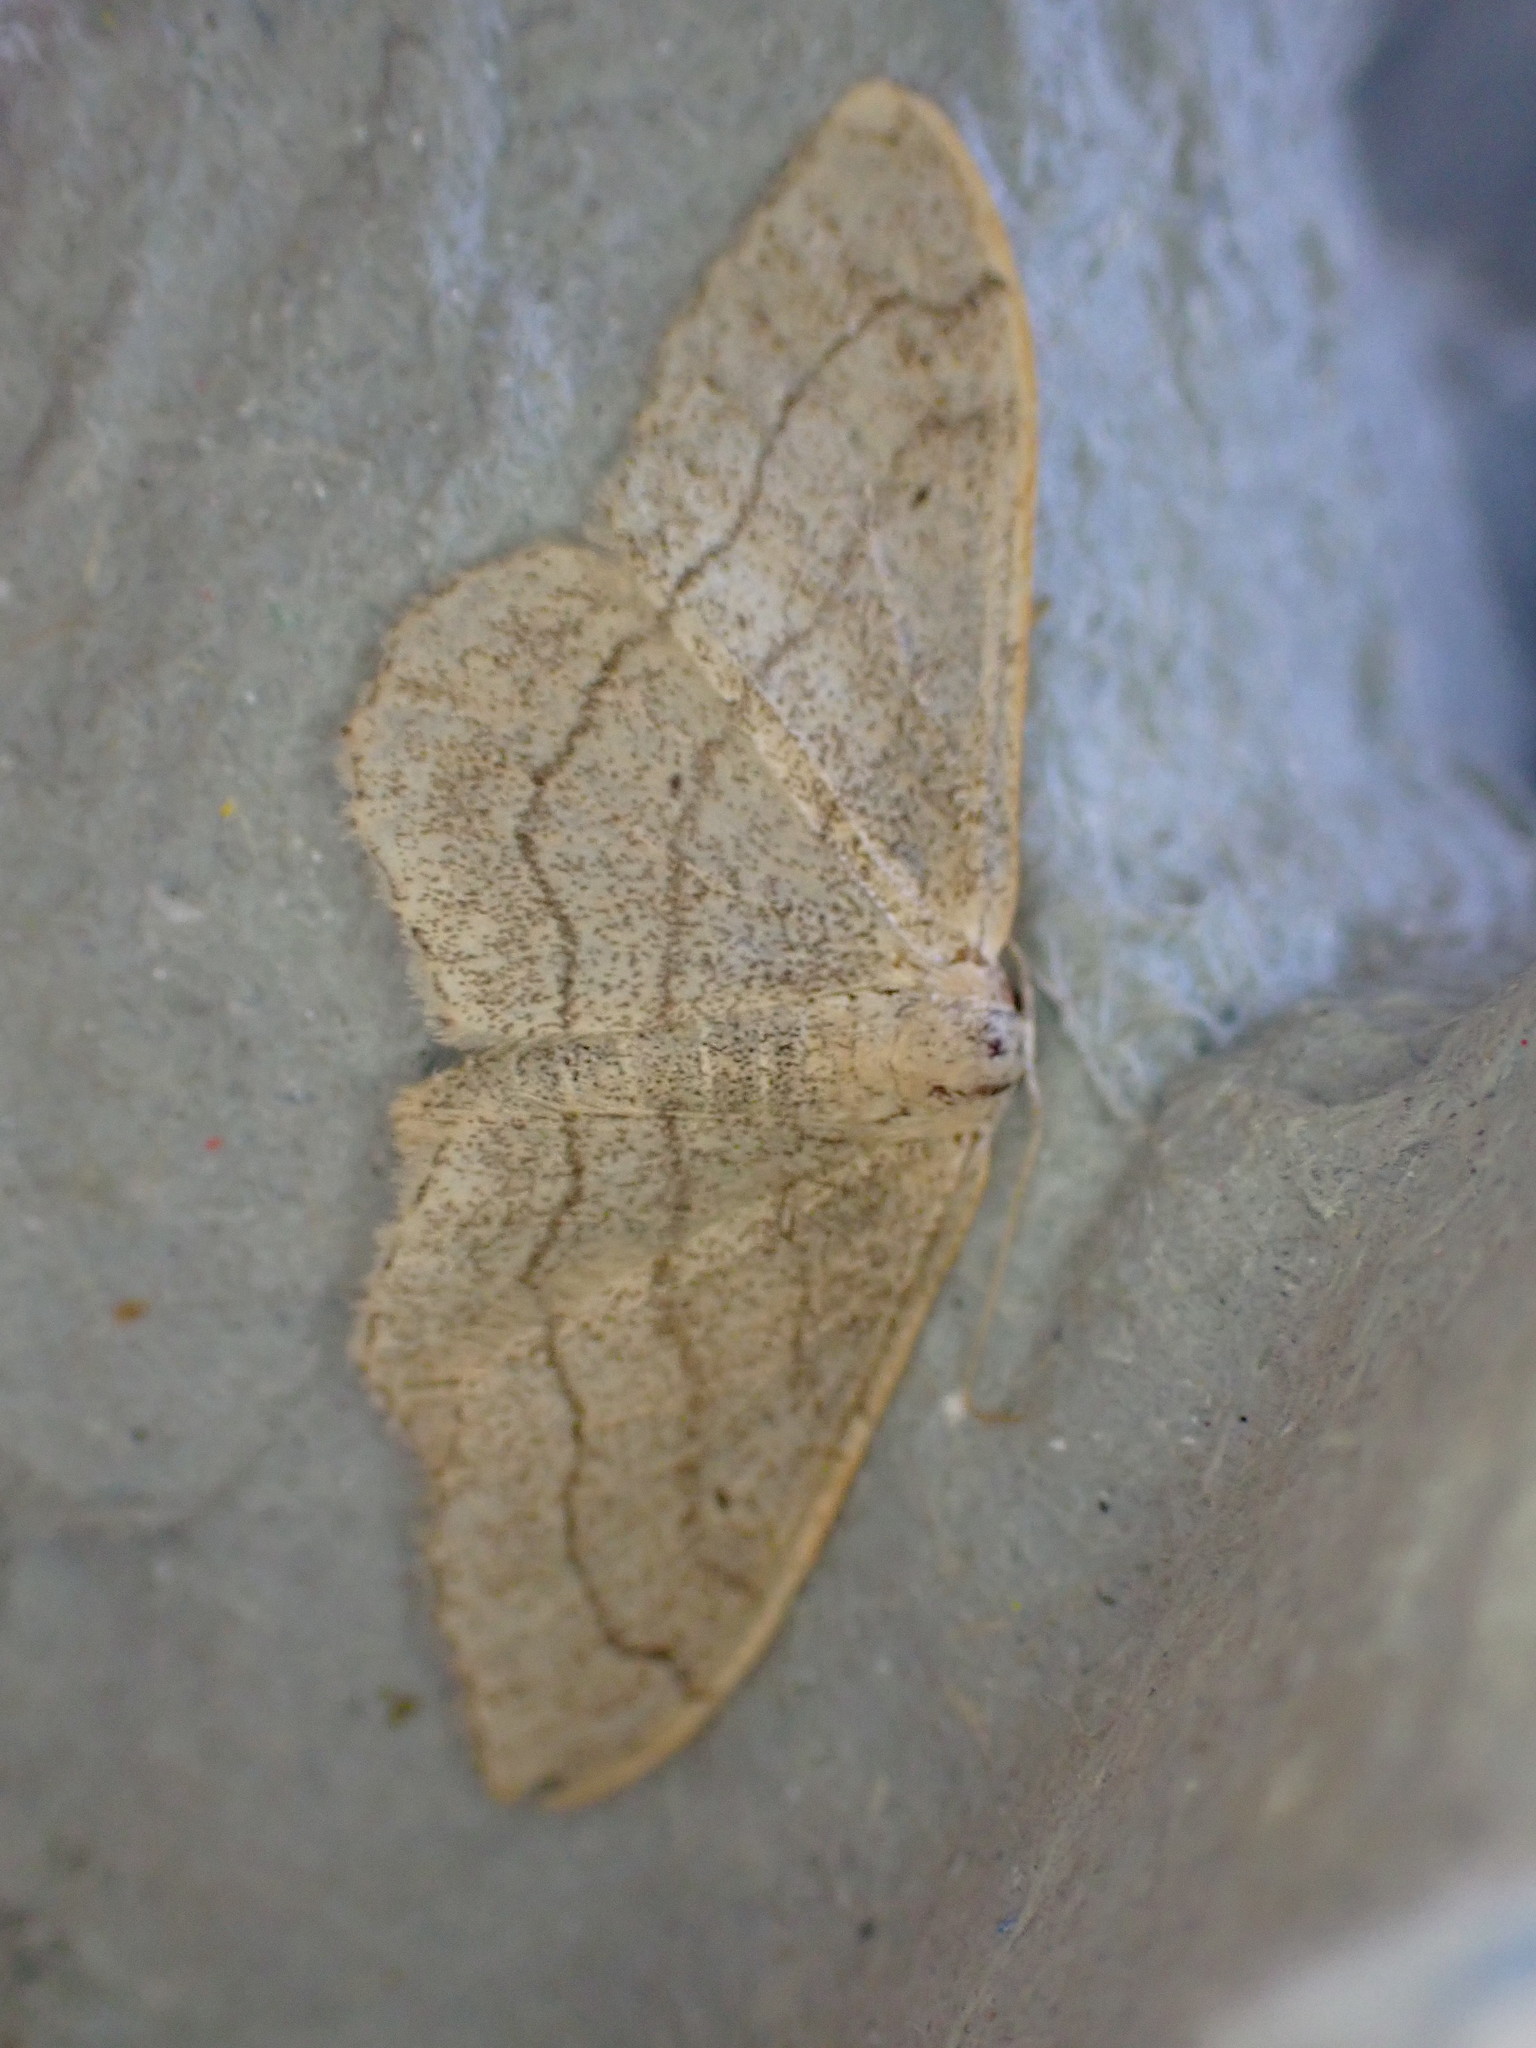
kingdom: Animalia
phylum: Arthropoda
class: Insecta
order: Lepidoptera
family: Geometridae
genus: Idaea
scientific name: Idaea aversata
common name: Riband wave
